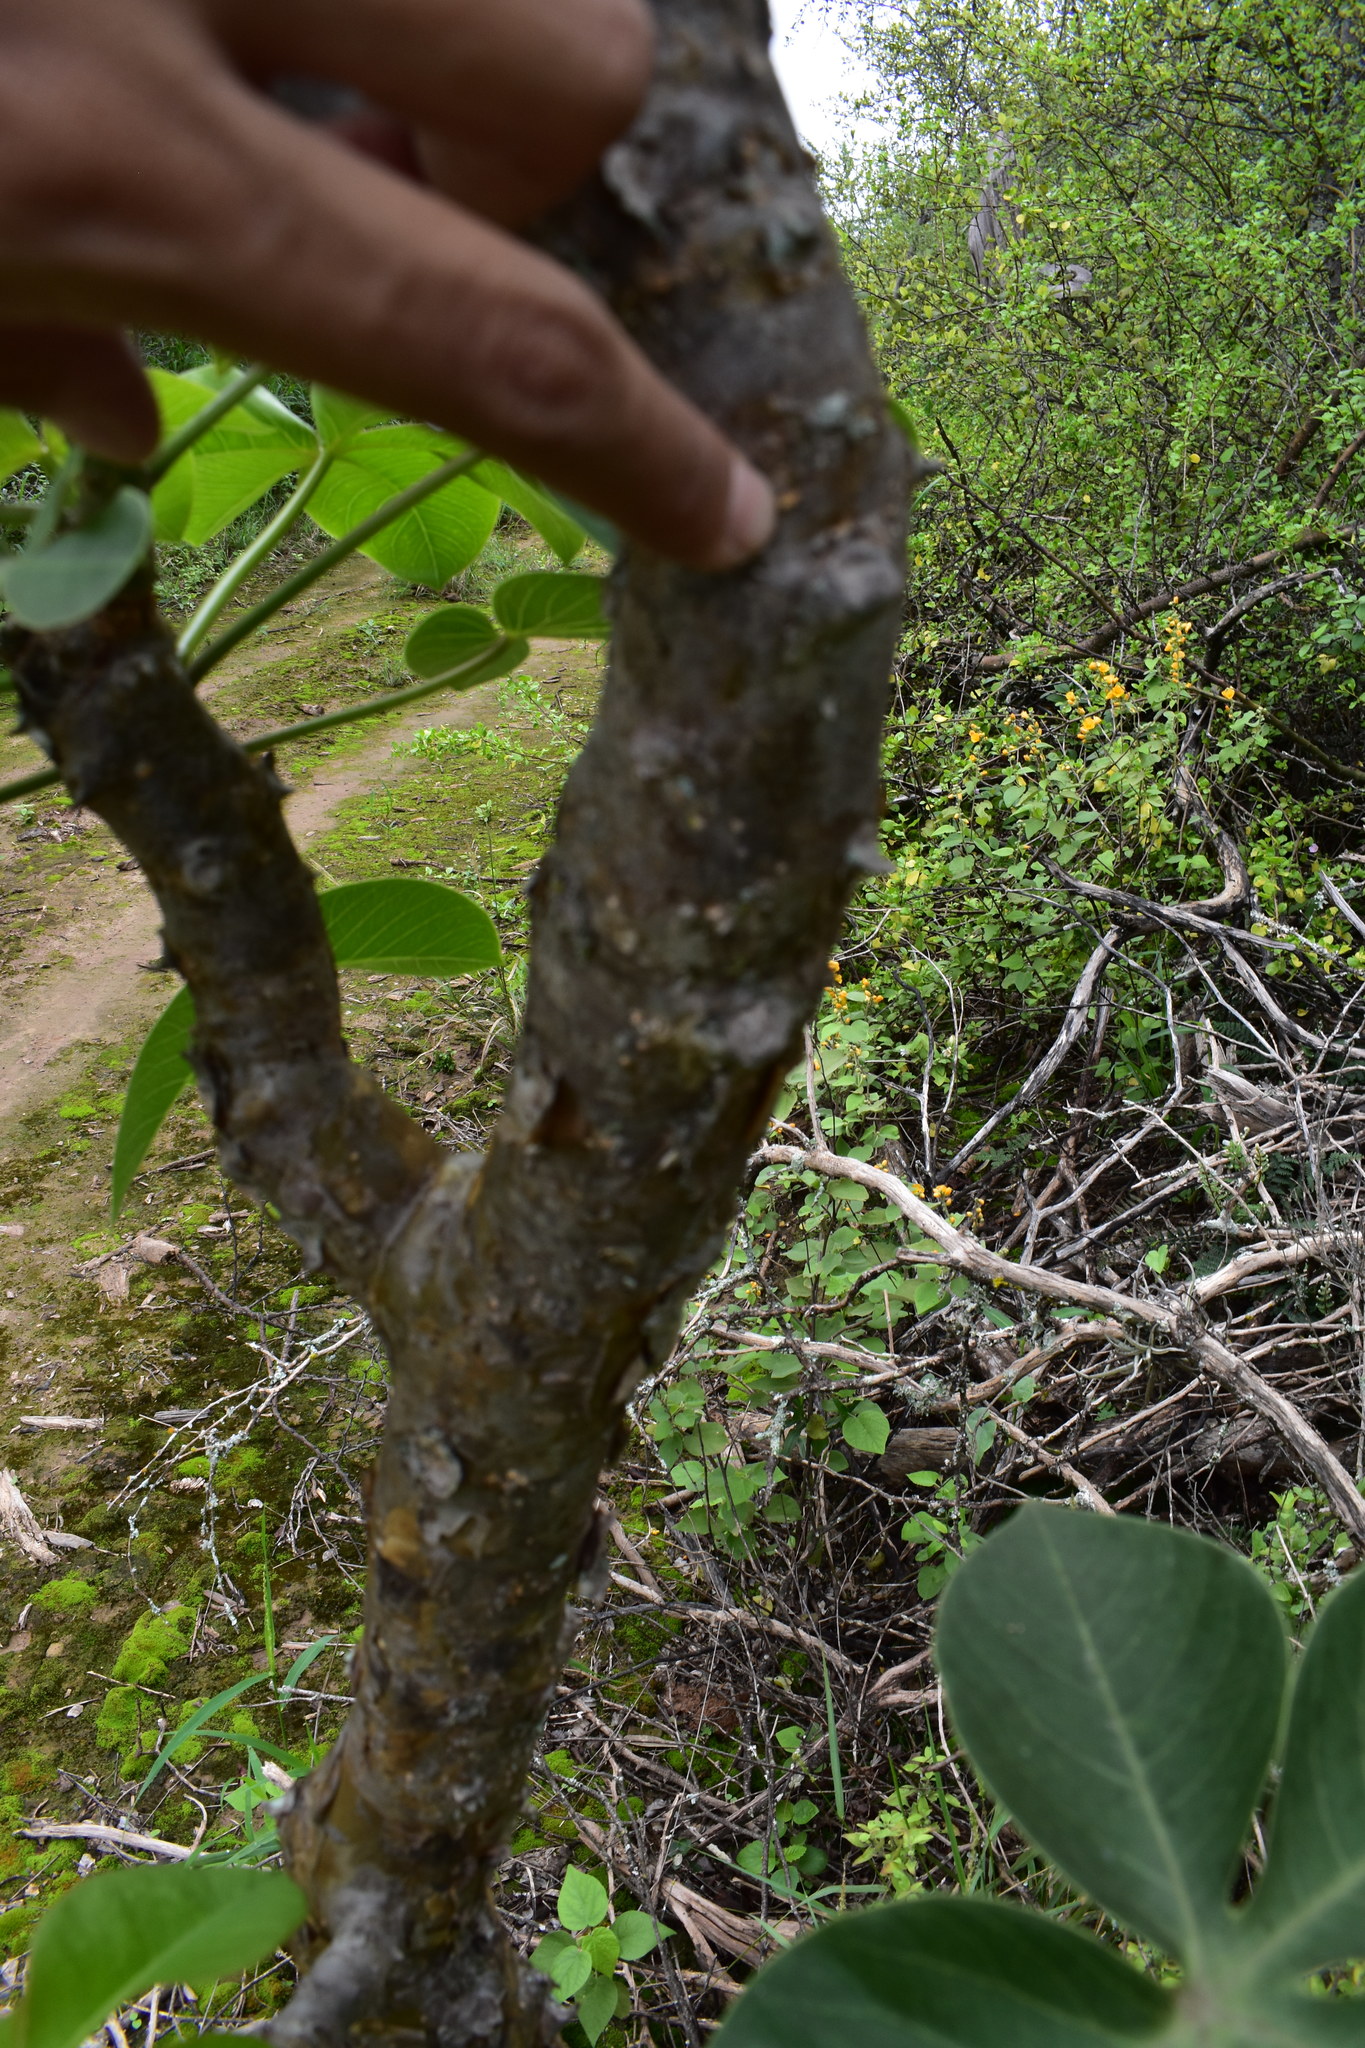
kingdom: Plantae
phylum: Tracheophyta
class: Magnoliopsida
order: Malpighiales
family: Euphorbiaceae
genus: Jatropha
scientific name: Jatropha macrocarpa
